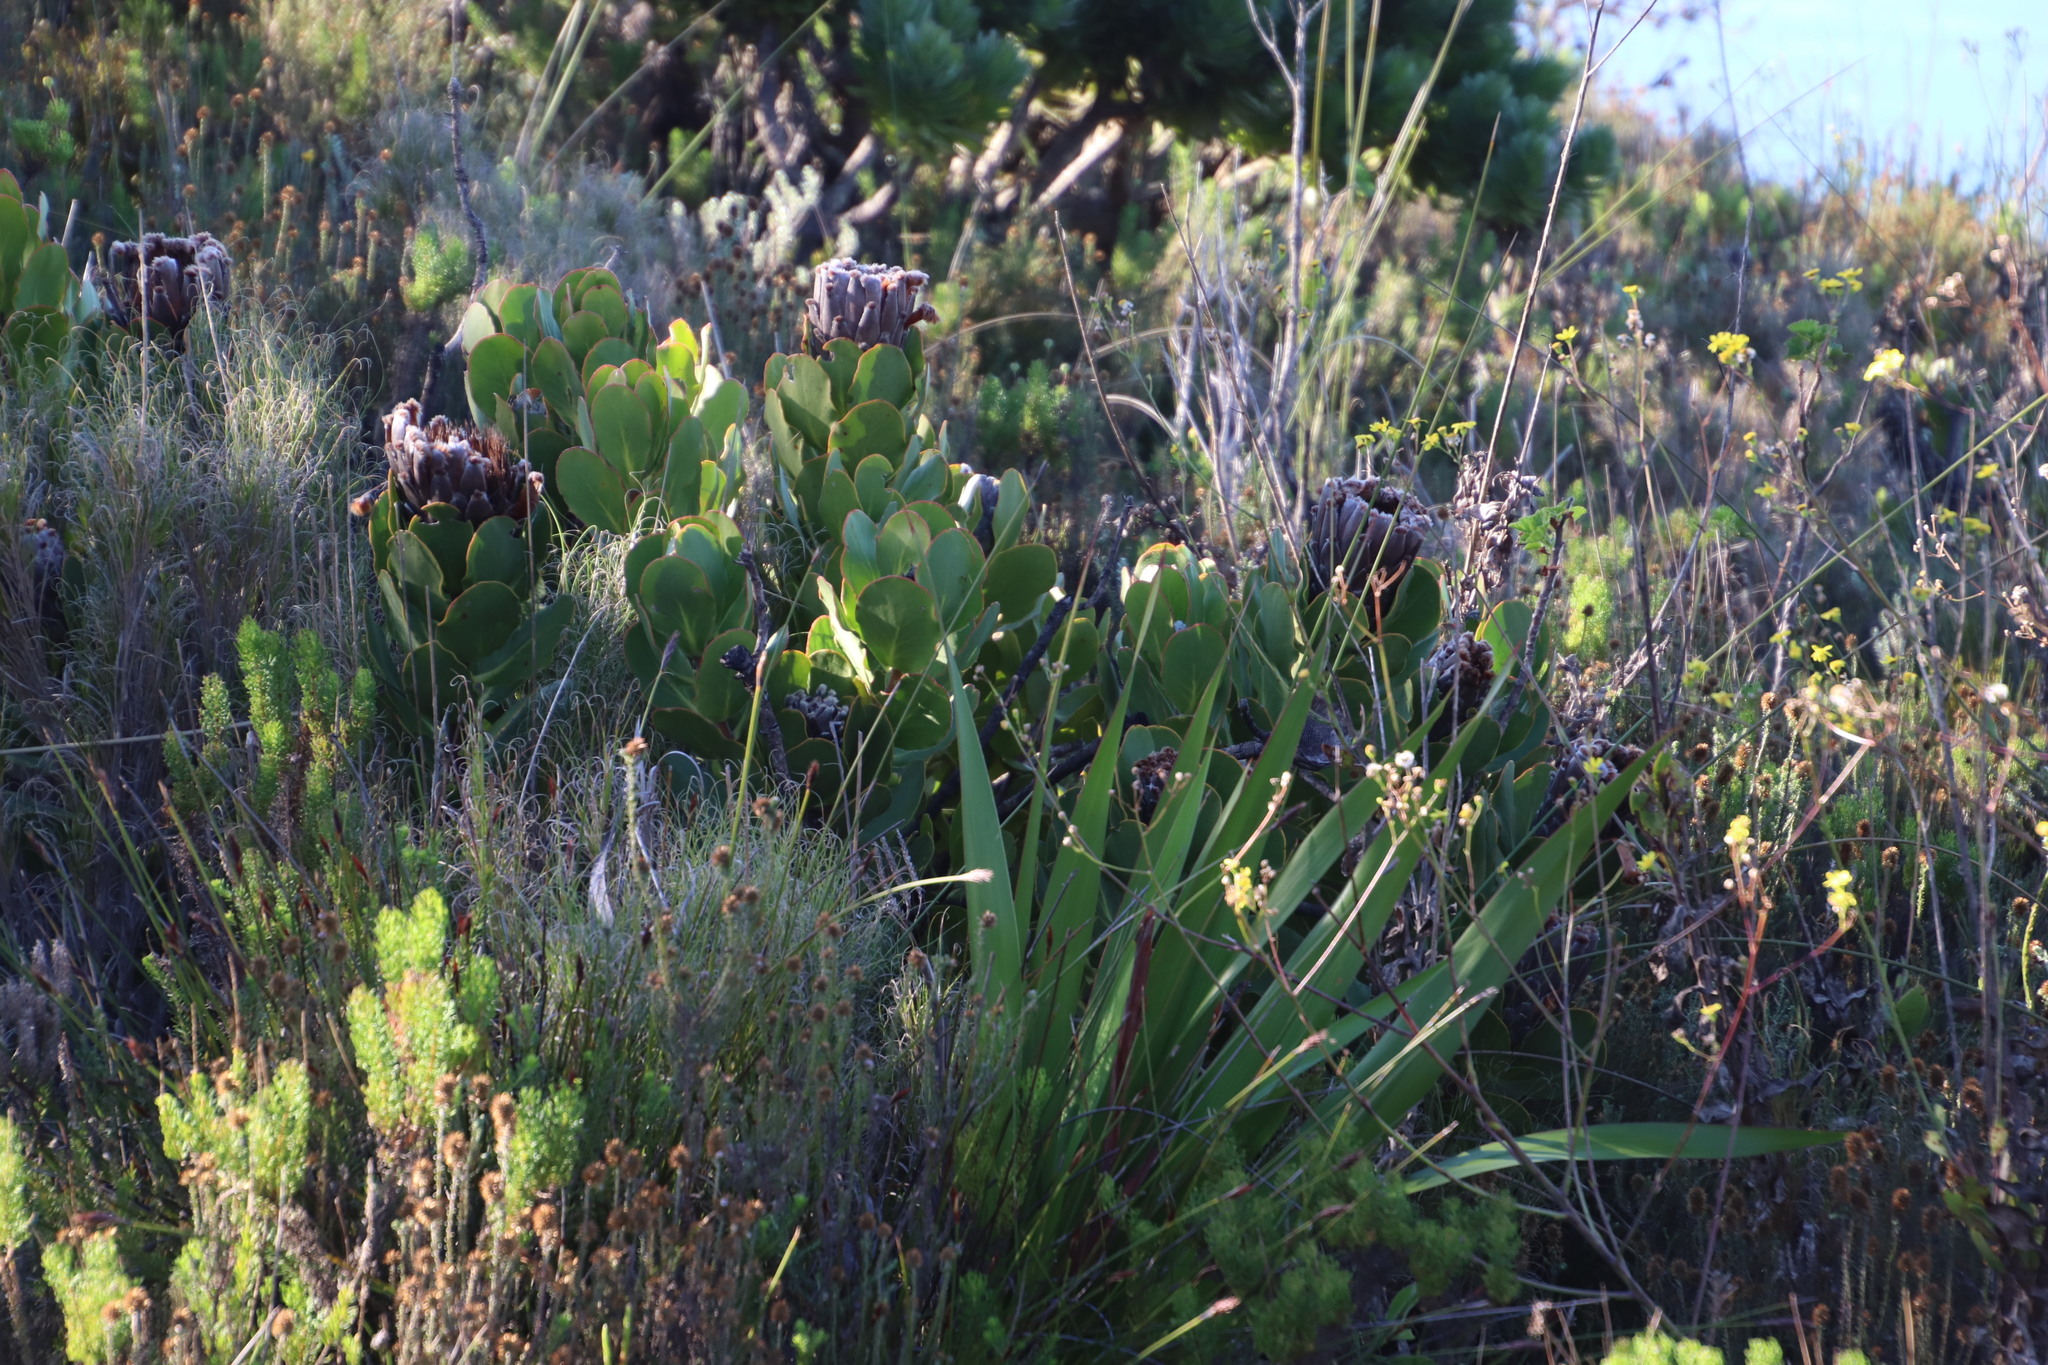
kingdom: Plantae
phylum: Tracheophyta
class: Magnoliopsida
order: Proteales
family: Proteaceae
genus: Protea
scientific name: Protea speciosa
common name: Brown-beard sugarbush
